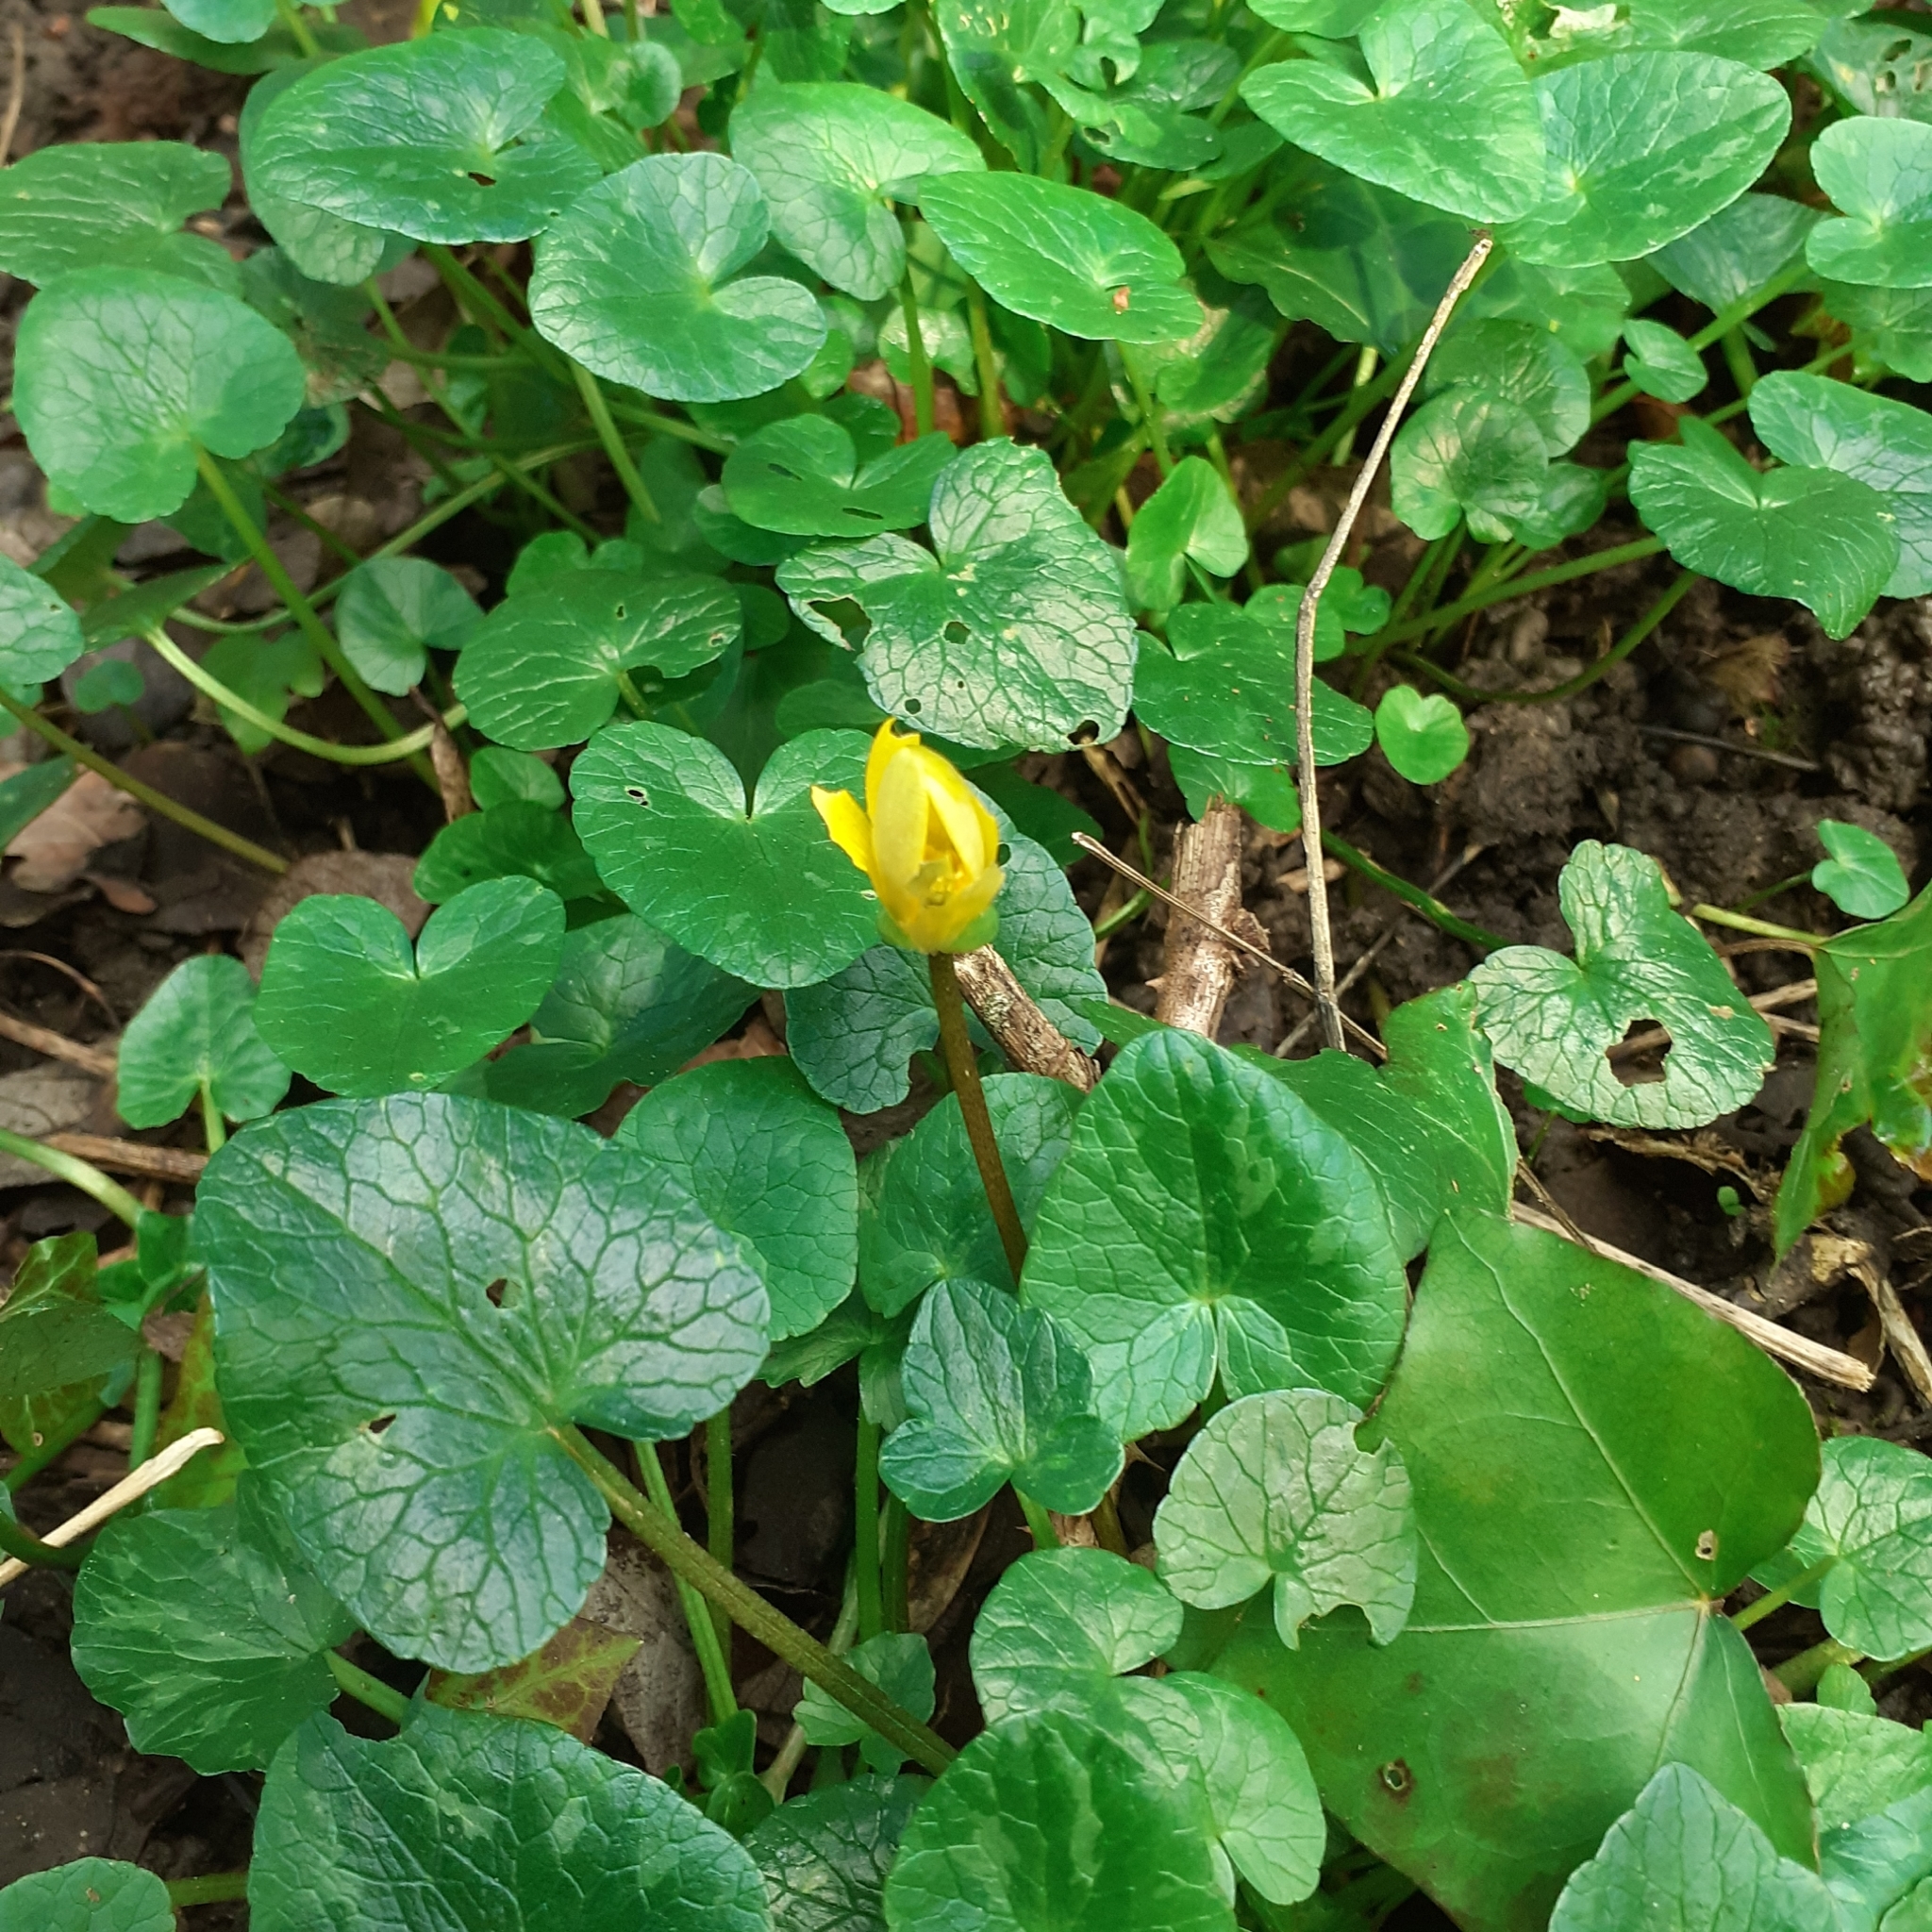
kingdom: Plantae
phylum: Tracheophyta
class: Magnoliopsida
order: Ranunculales
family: Ranunculaceae
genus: Ficaria
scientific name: Ficaria verna
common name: Lesser celandine
